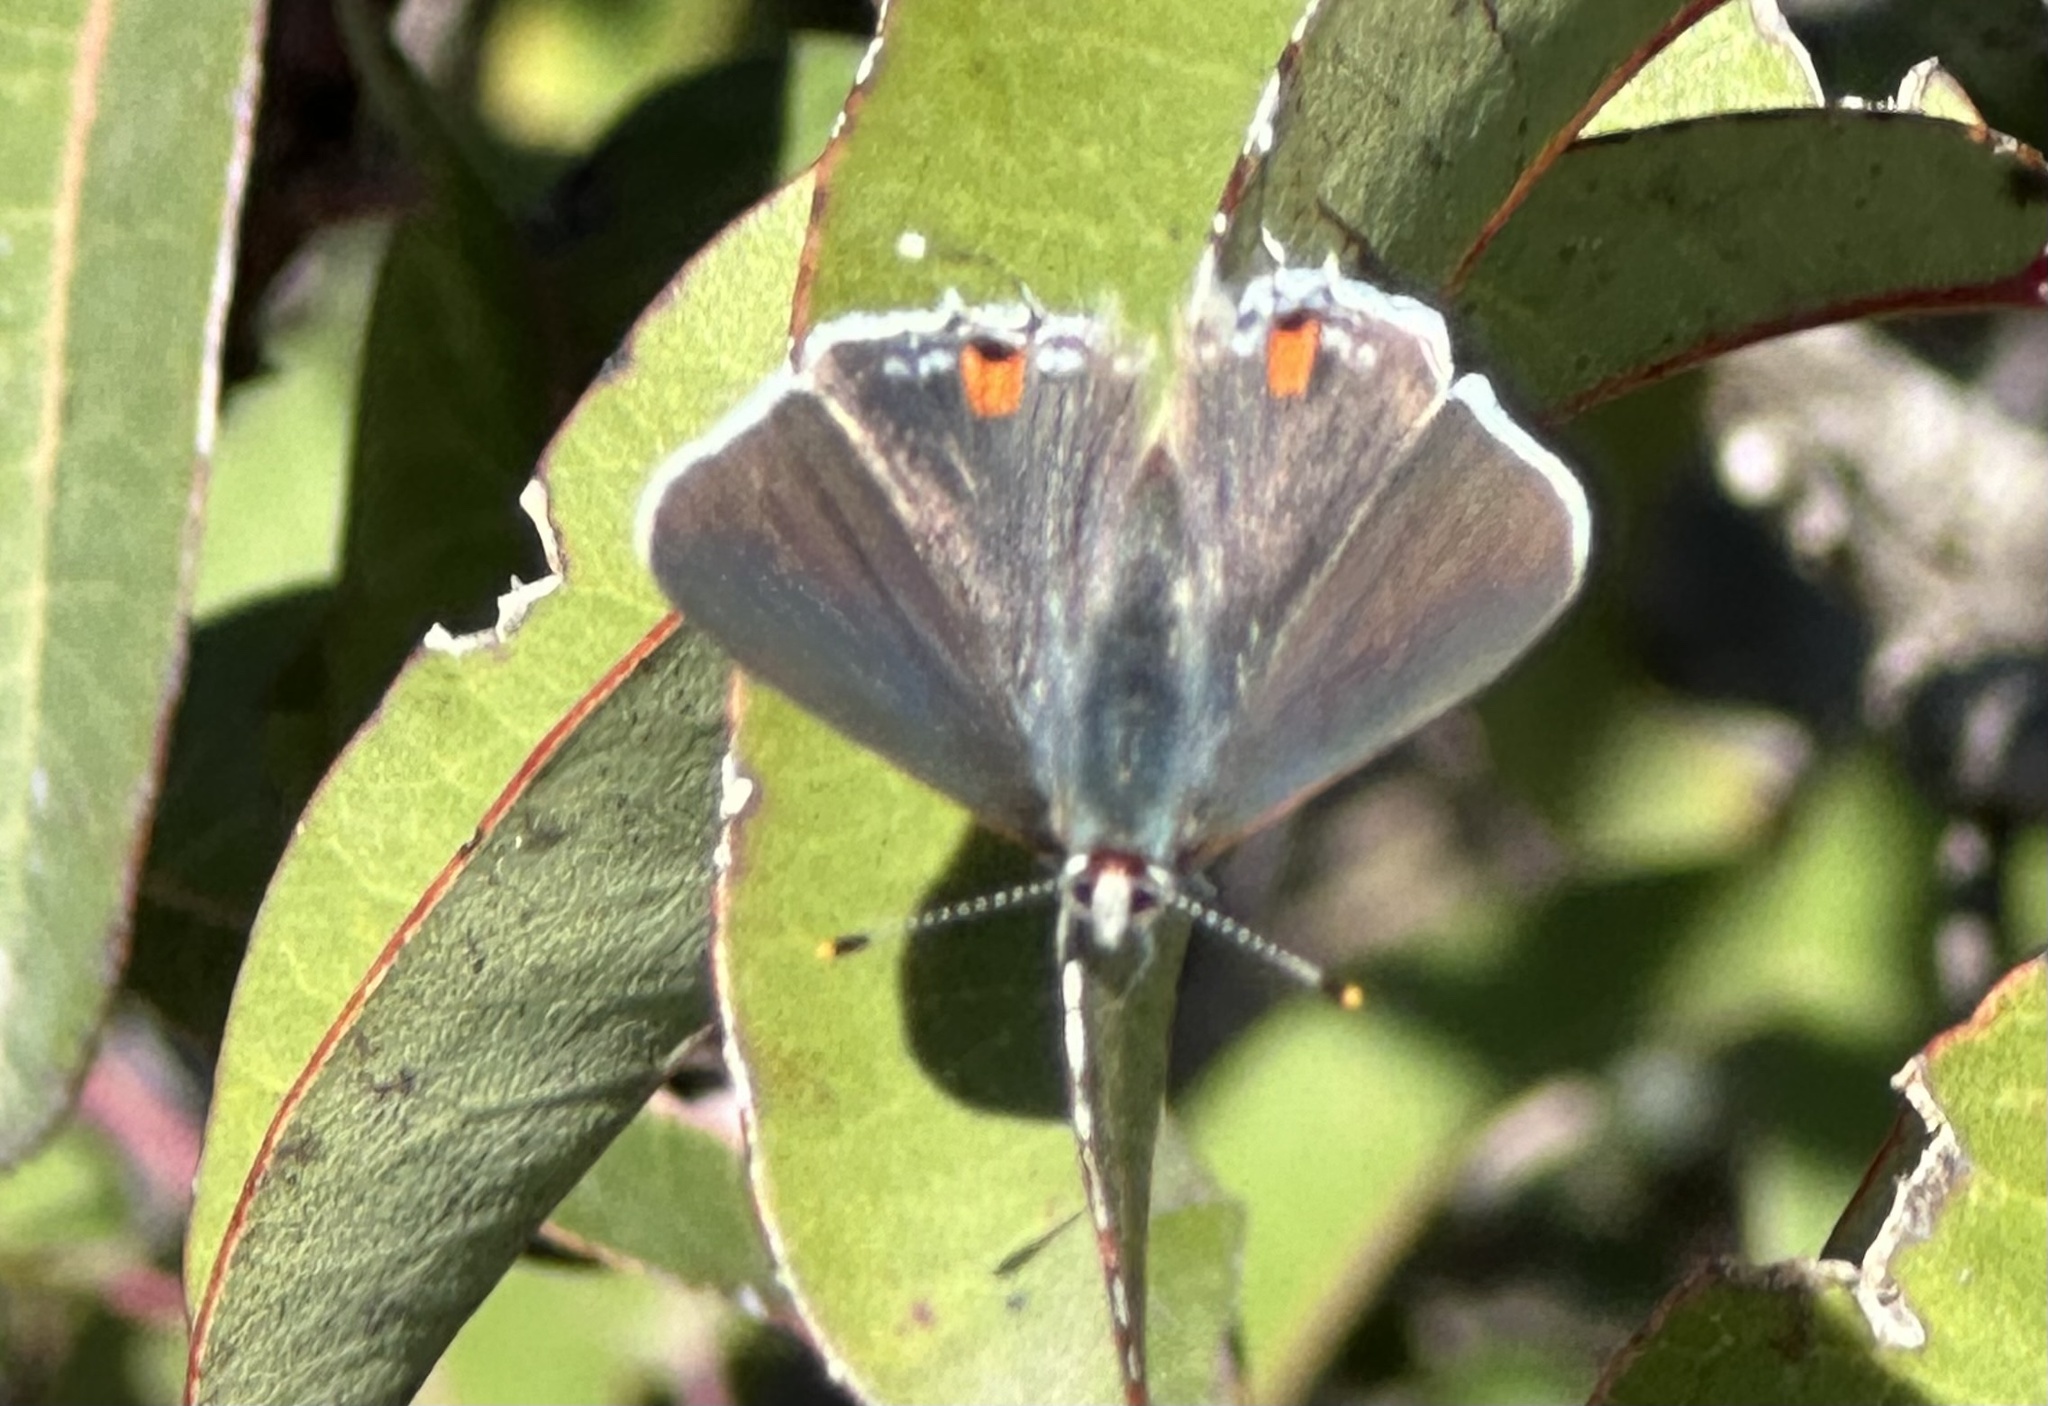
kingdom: Animalia
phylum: Arthropoda
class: Insecta
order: Lepidoptera
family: Lycaenidae
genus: Strymon
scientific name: Strymon melinus
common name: Gray hairstreak
